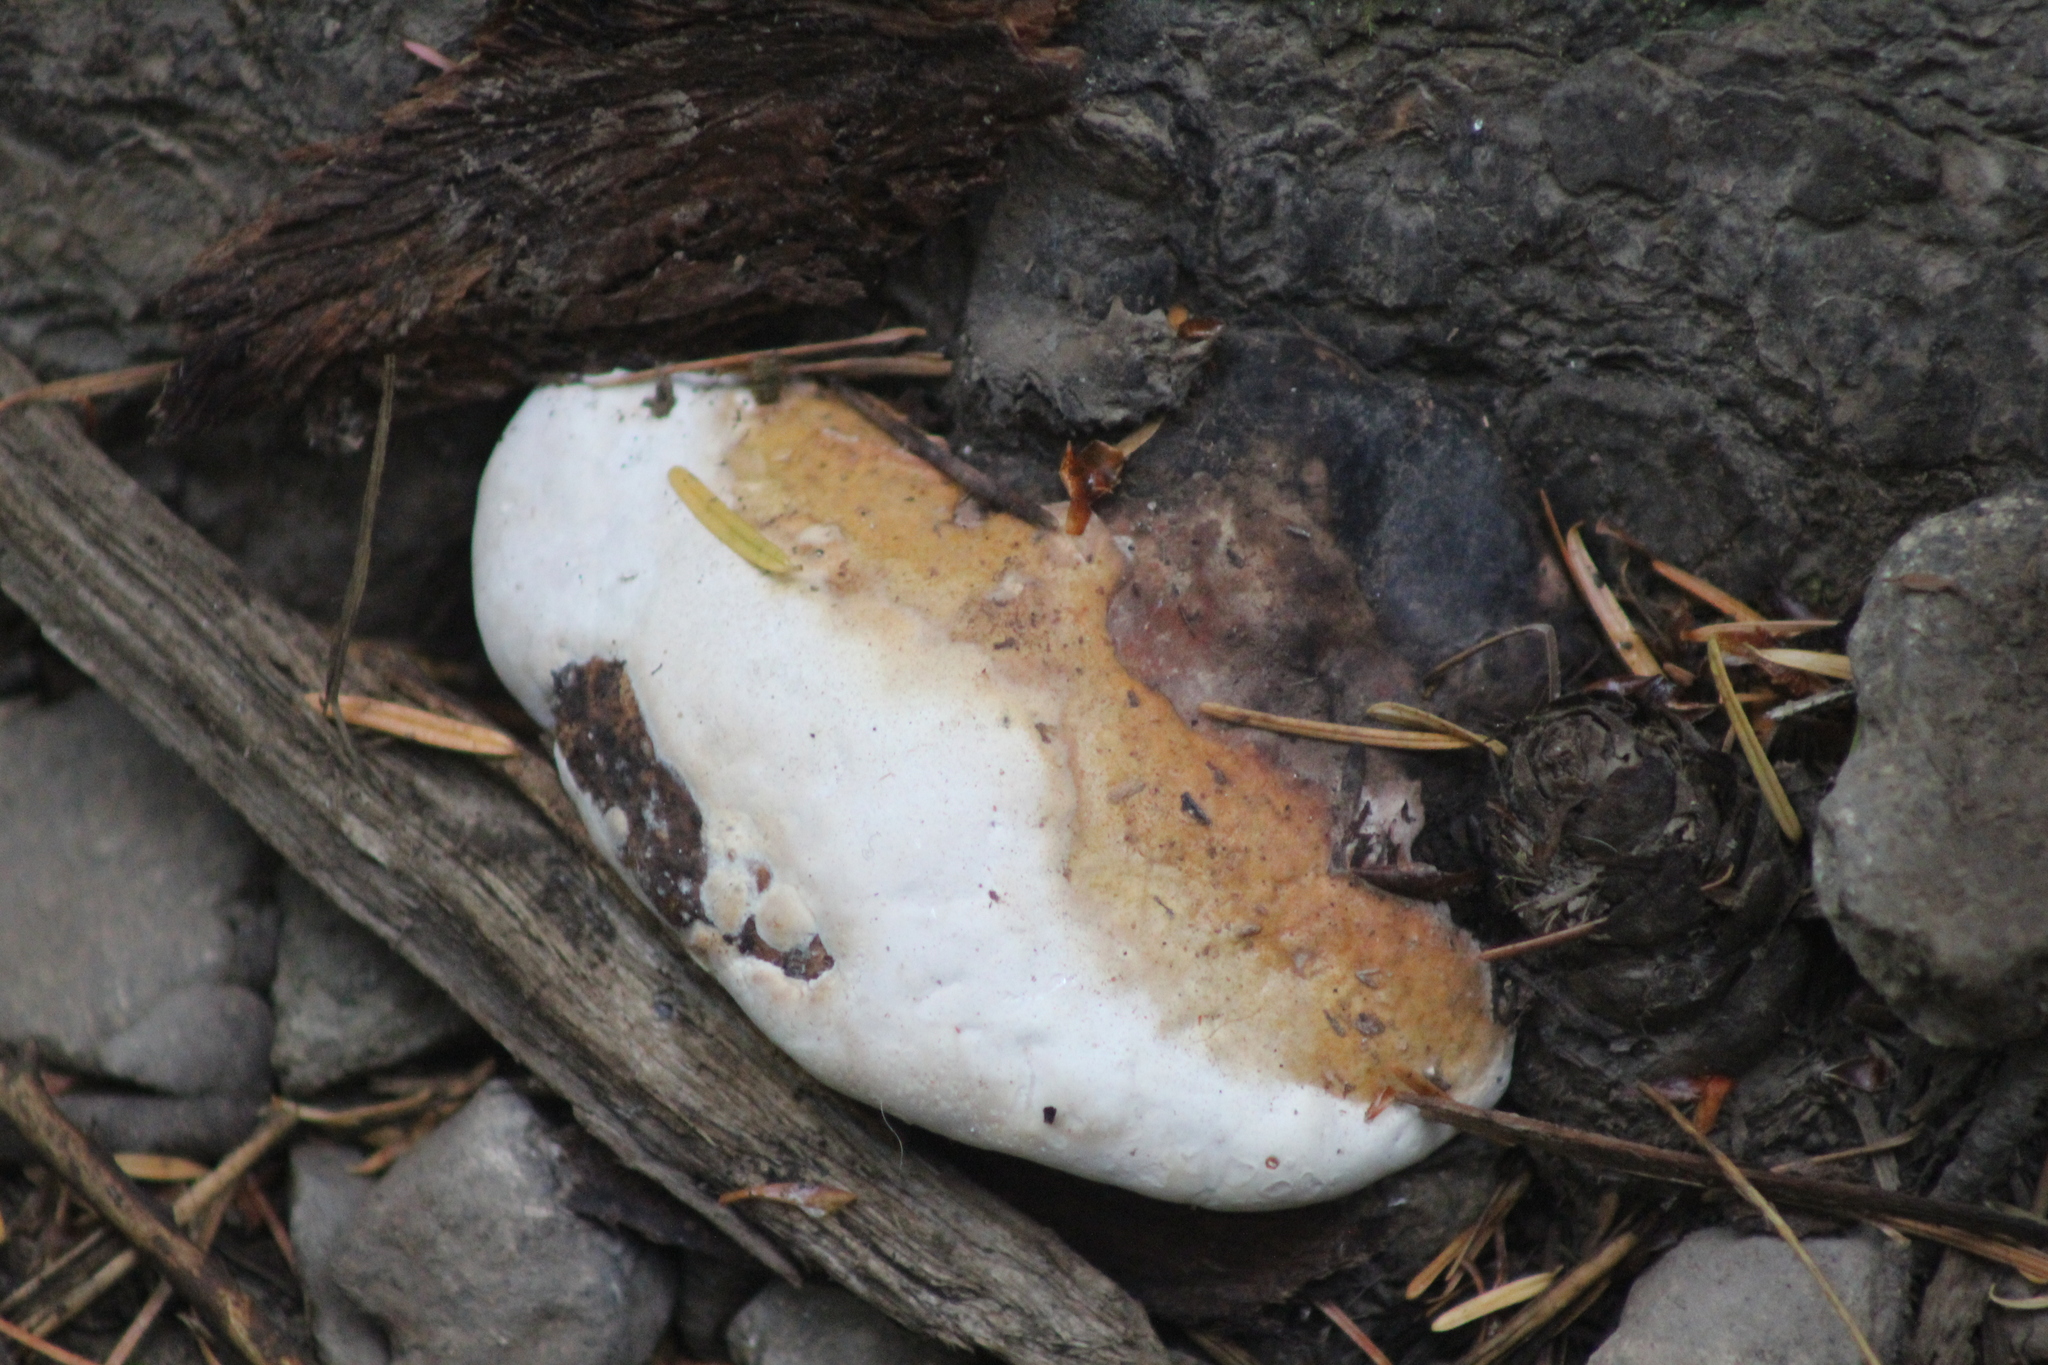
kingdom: Fungi
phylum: Basidiomycota
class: Agaricomycetes
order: Polyporales
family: Fomitopsidaceae
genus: Fomitopsis
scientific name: Fomitopsis mounceae
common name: Northern red belt
